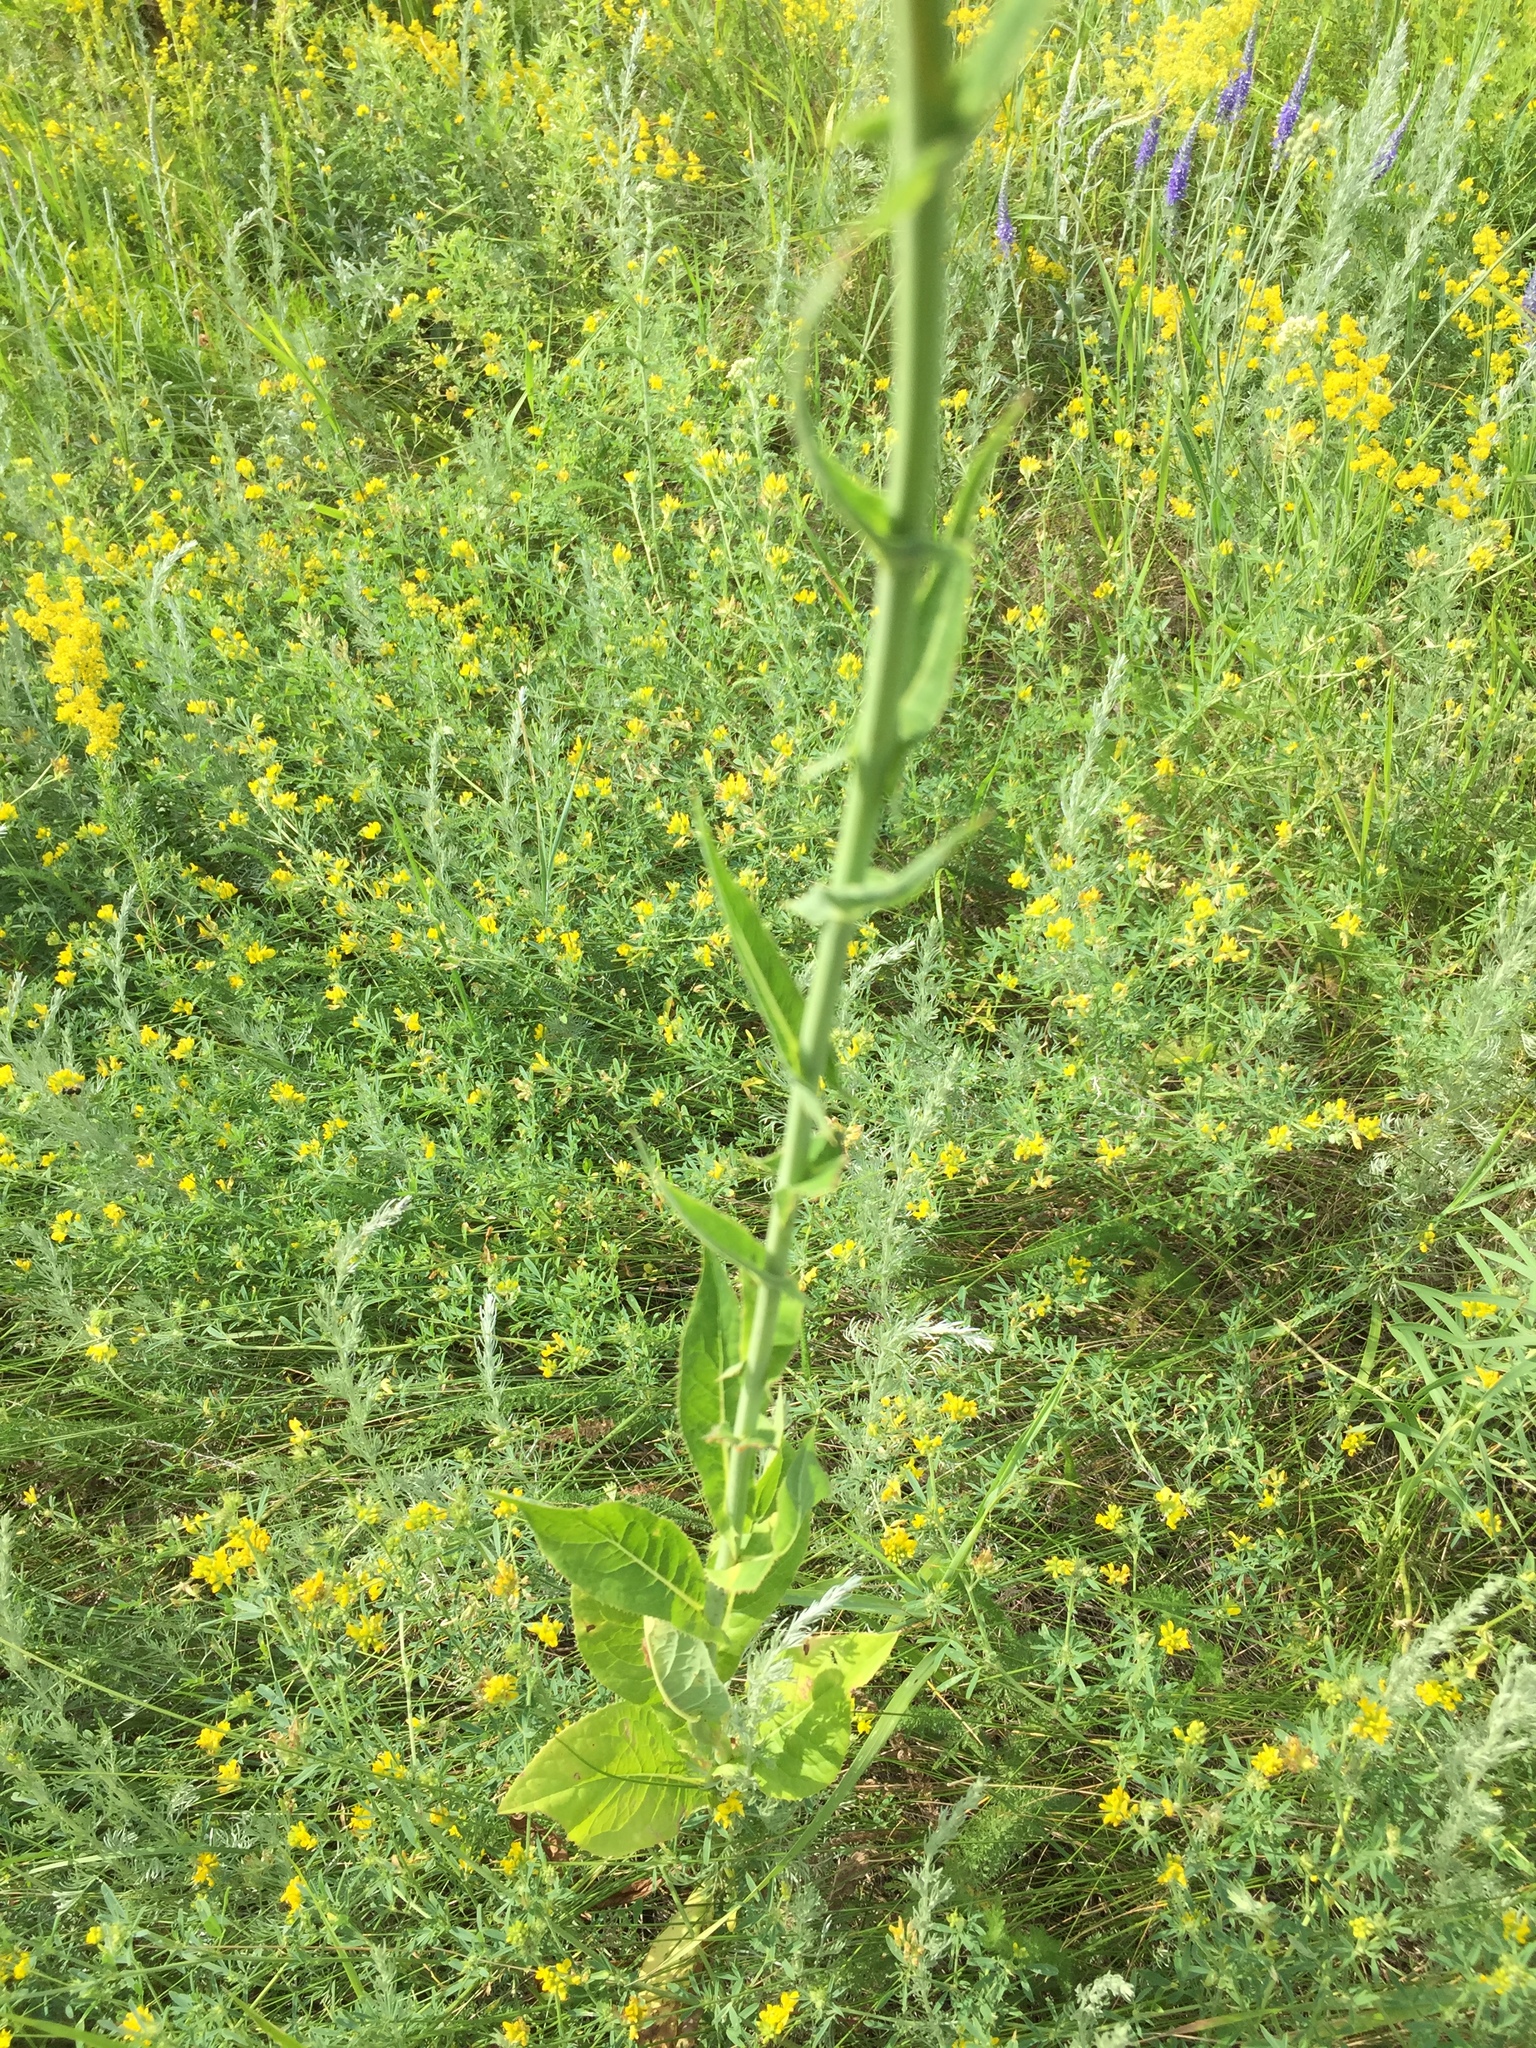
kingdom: Plantae
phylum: Tracheophyta
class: Magnoliopsida
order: Asterales
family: Asteraceae
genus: Lactuca
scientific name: Lactuca serriola
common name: Prickly lettuce
